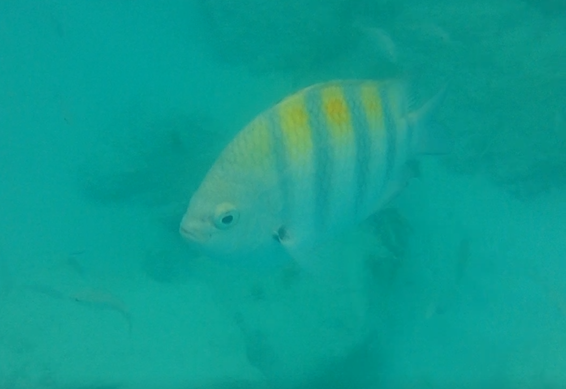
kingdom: Animalia
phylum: Chordata
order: Perciformes
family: Pomacentridae
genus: Abudefduf
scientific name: Abudefduf saxatilis
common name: Sergeant major
